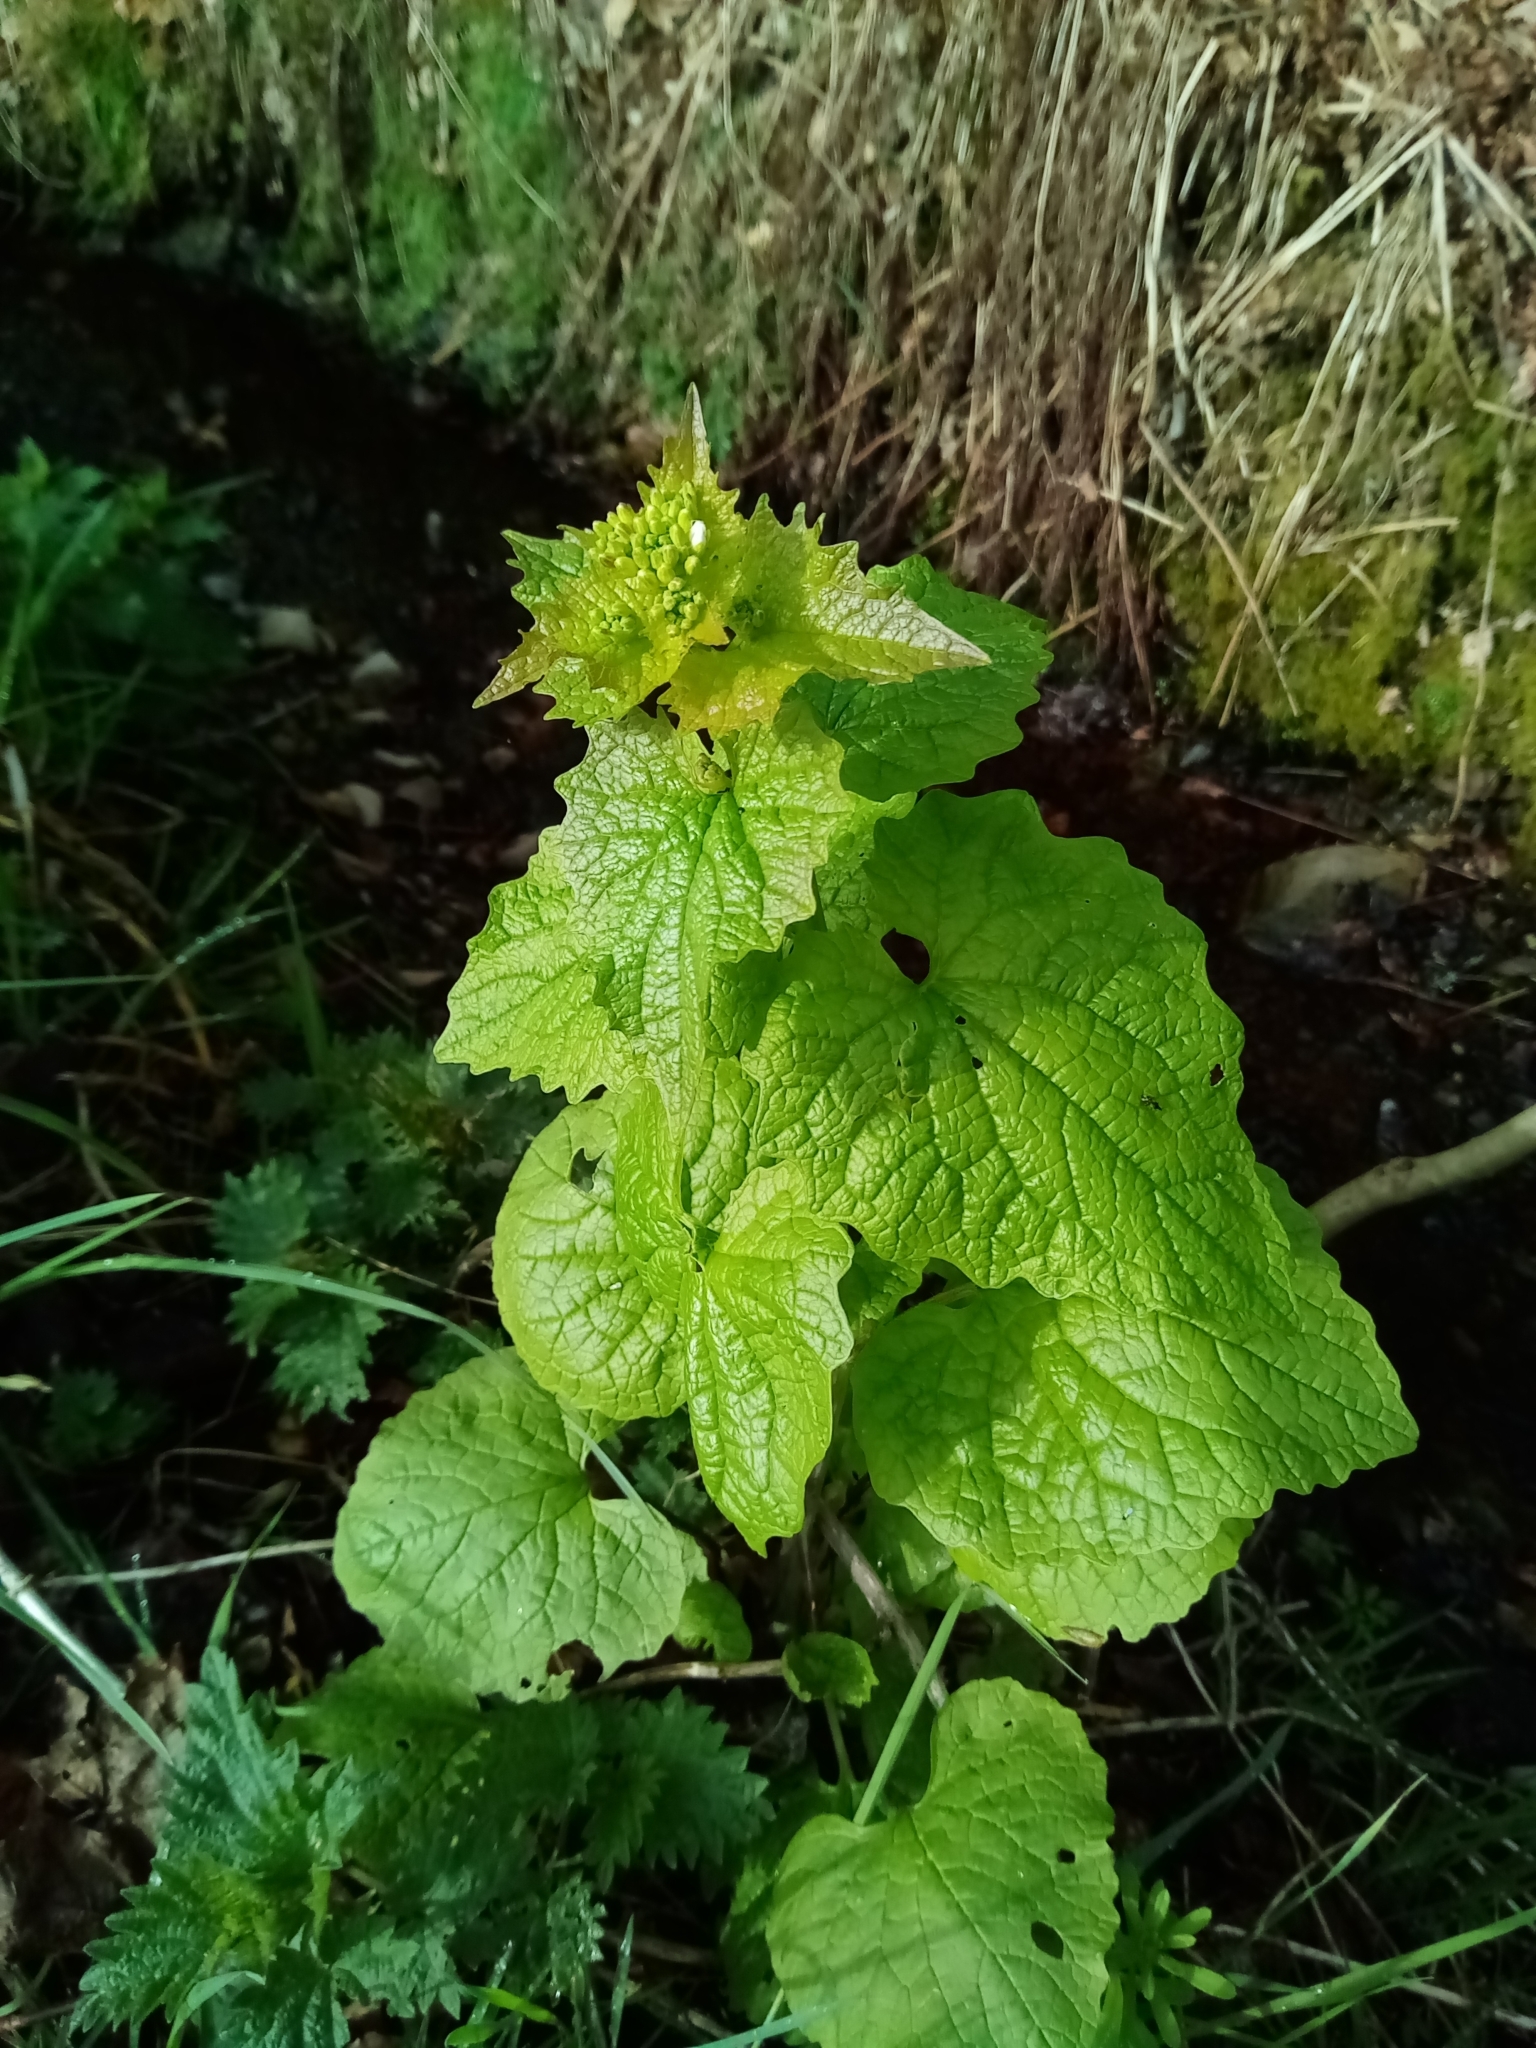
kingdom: Plantae
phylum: Tracheophyta
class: Magnoliopsida
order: Brassicales
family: Brassicaceae
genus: Alliaria
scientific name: Alliaria petiolata
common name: Garlic mustard
